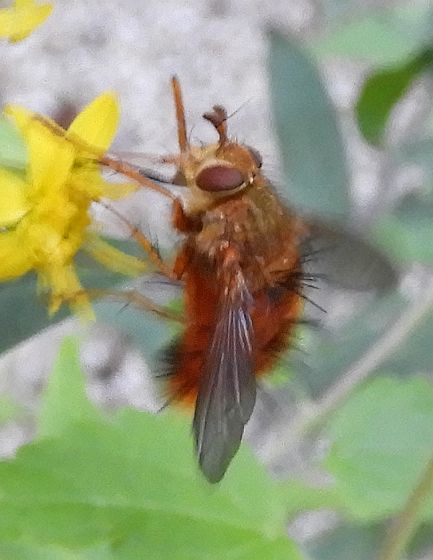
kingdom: Animalia
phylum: Arthropoda
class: Insecta
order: Diptera
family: Tachinidae
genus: Adejeania
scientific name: Adejeania vexatrix
